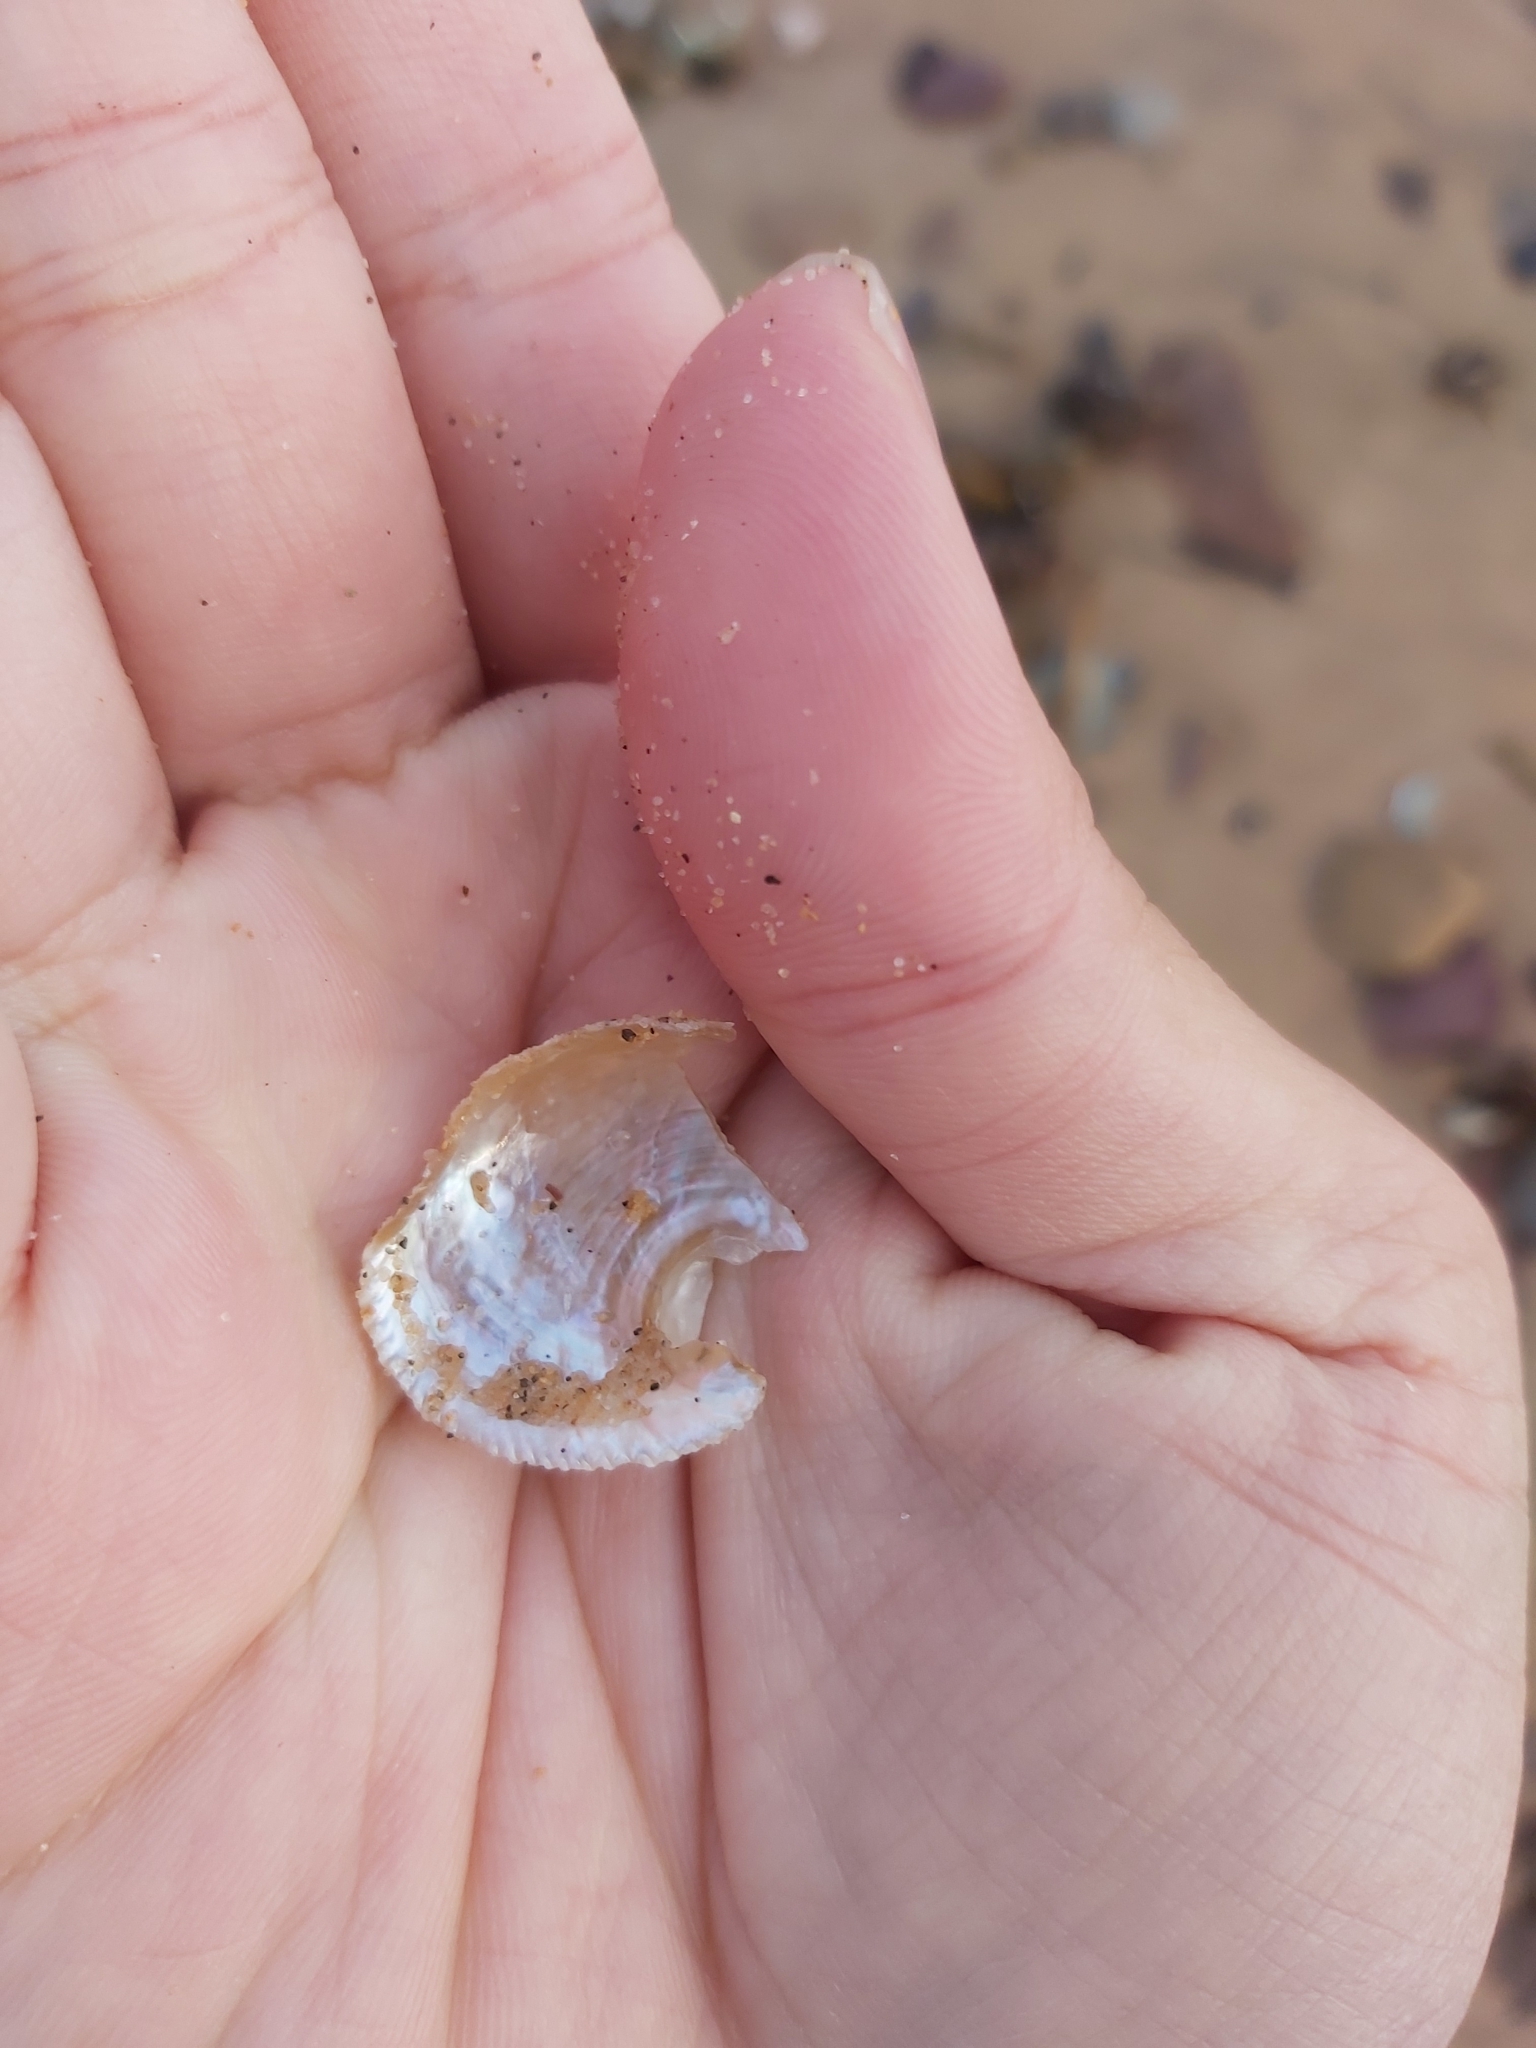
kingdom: Animalia
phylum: Mollusca
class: Gastropoda
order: Seguenziida
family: Chilodontaidae
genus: Granata
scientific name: Granata imbricata
